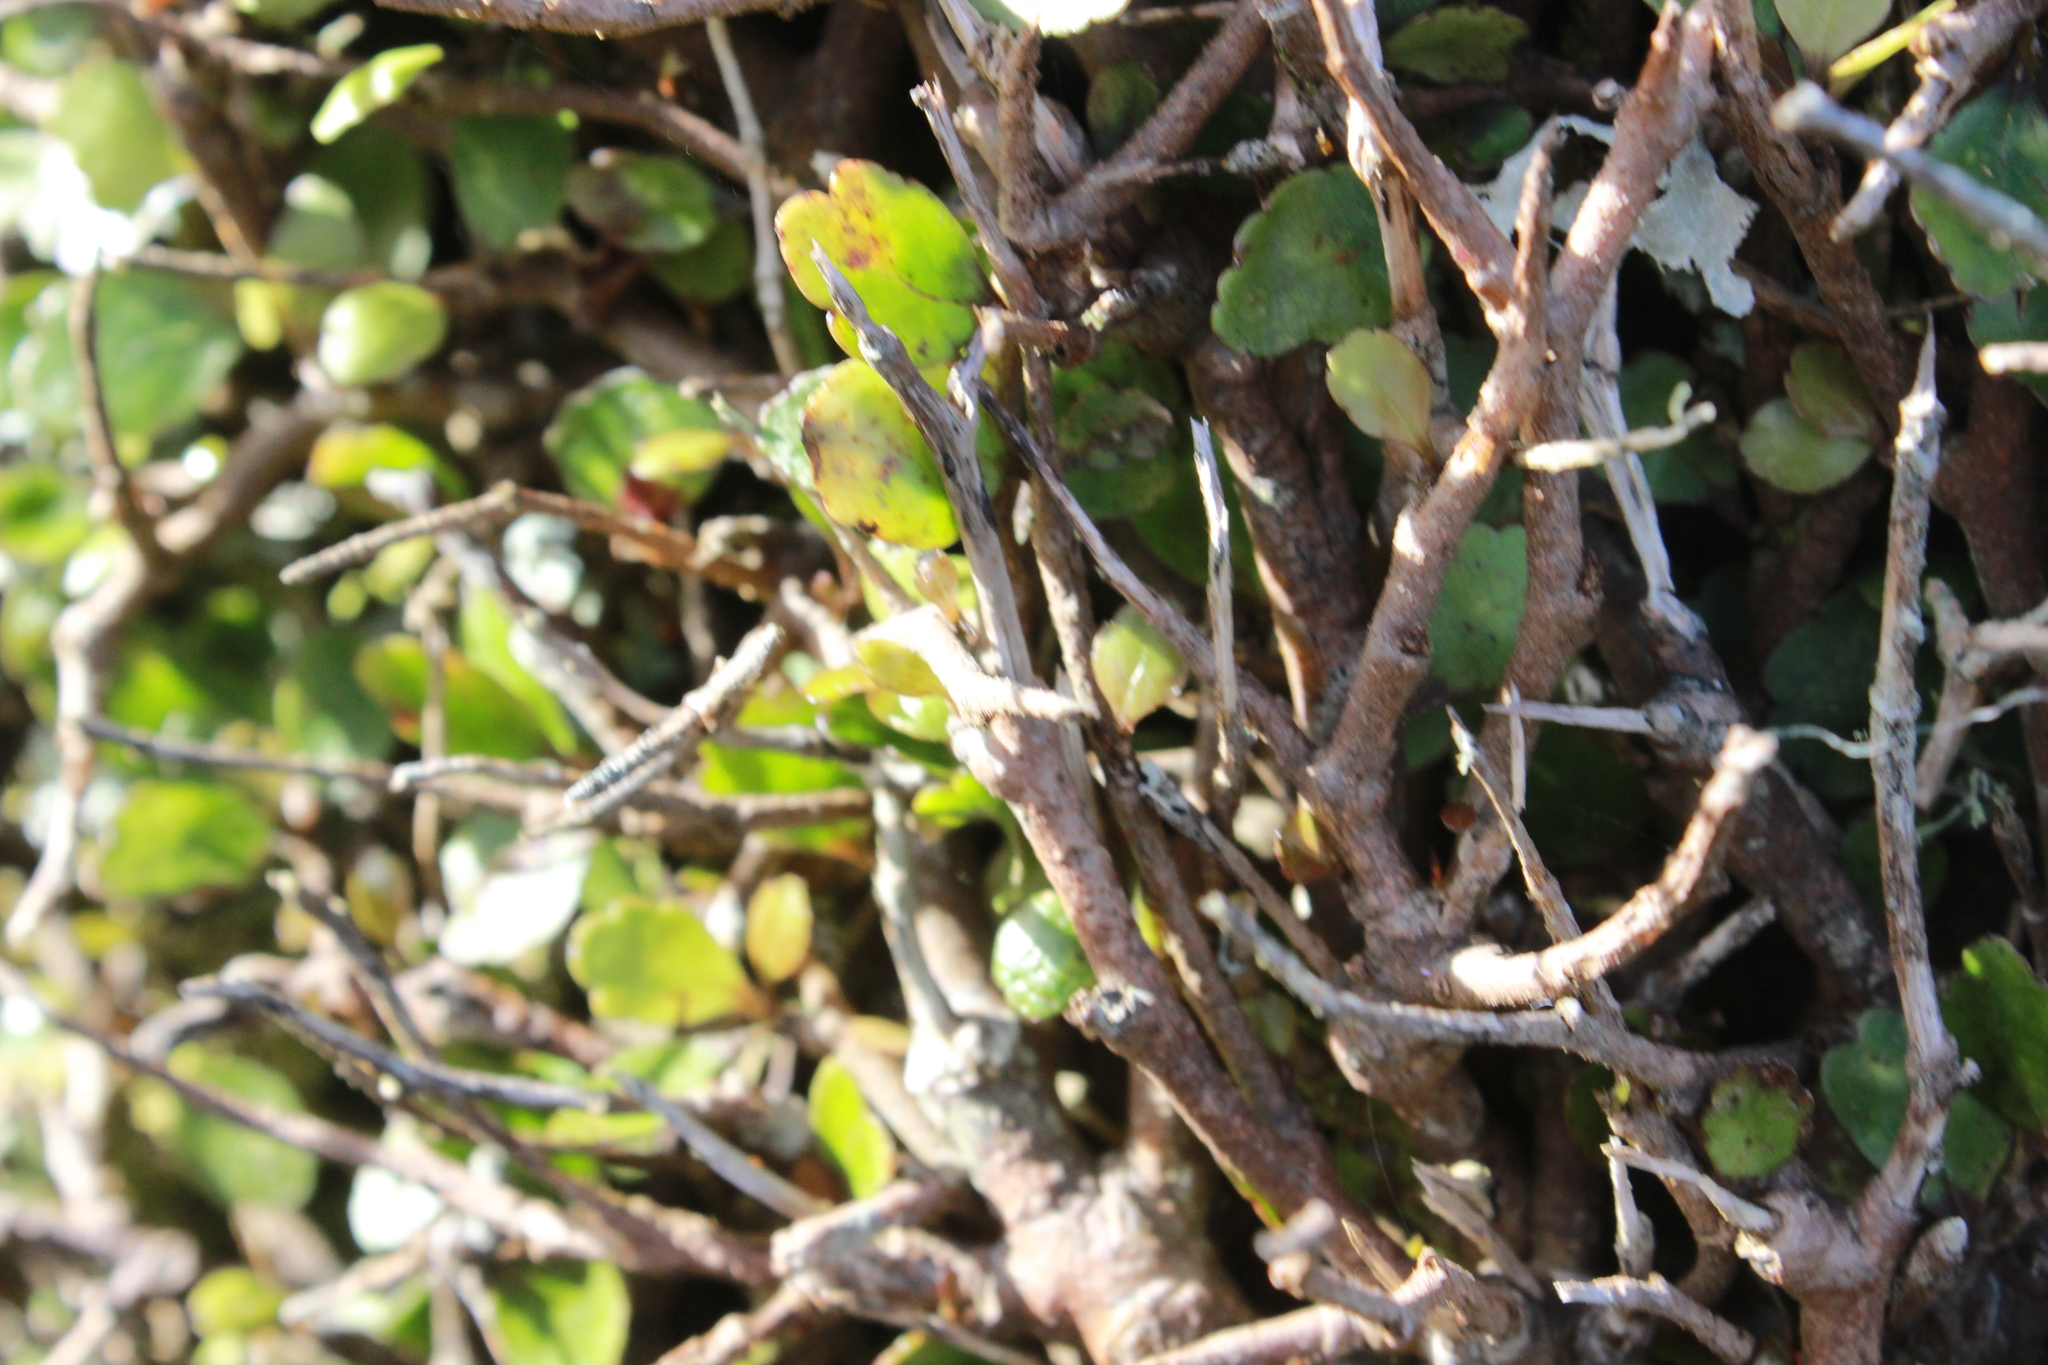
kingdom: Plantae
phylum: Tracheophyta
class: Magnoliopsida
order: Apiales
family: Araliaceae
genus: Raukaua
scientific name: Raukaua anomalus
